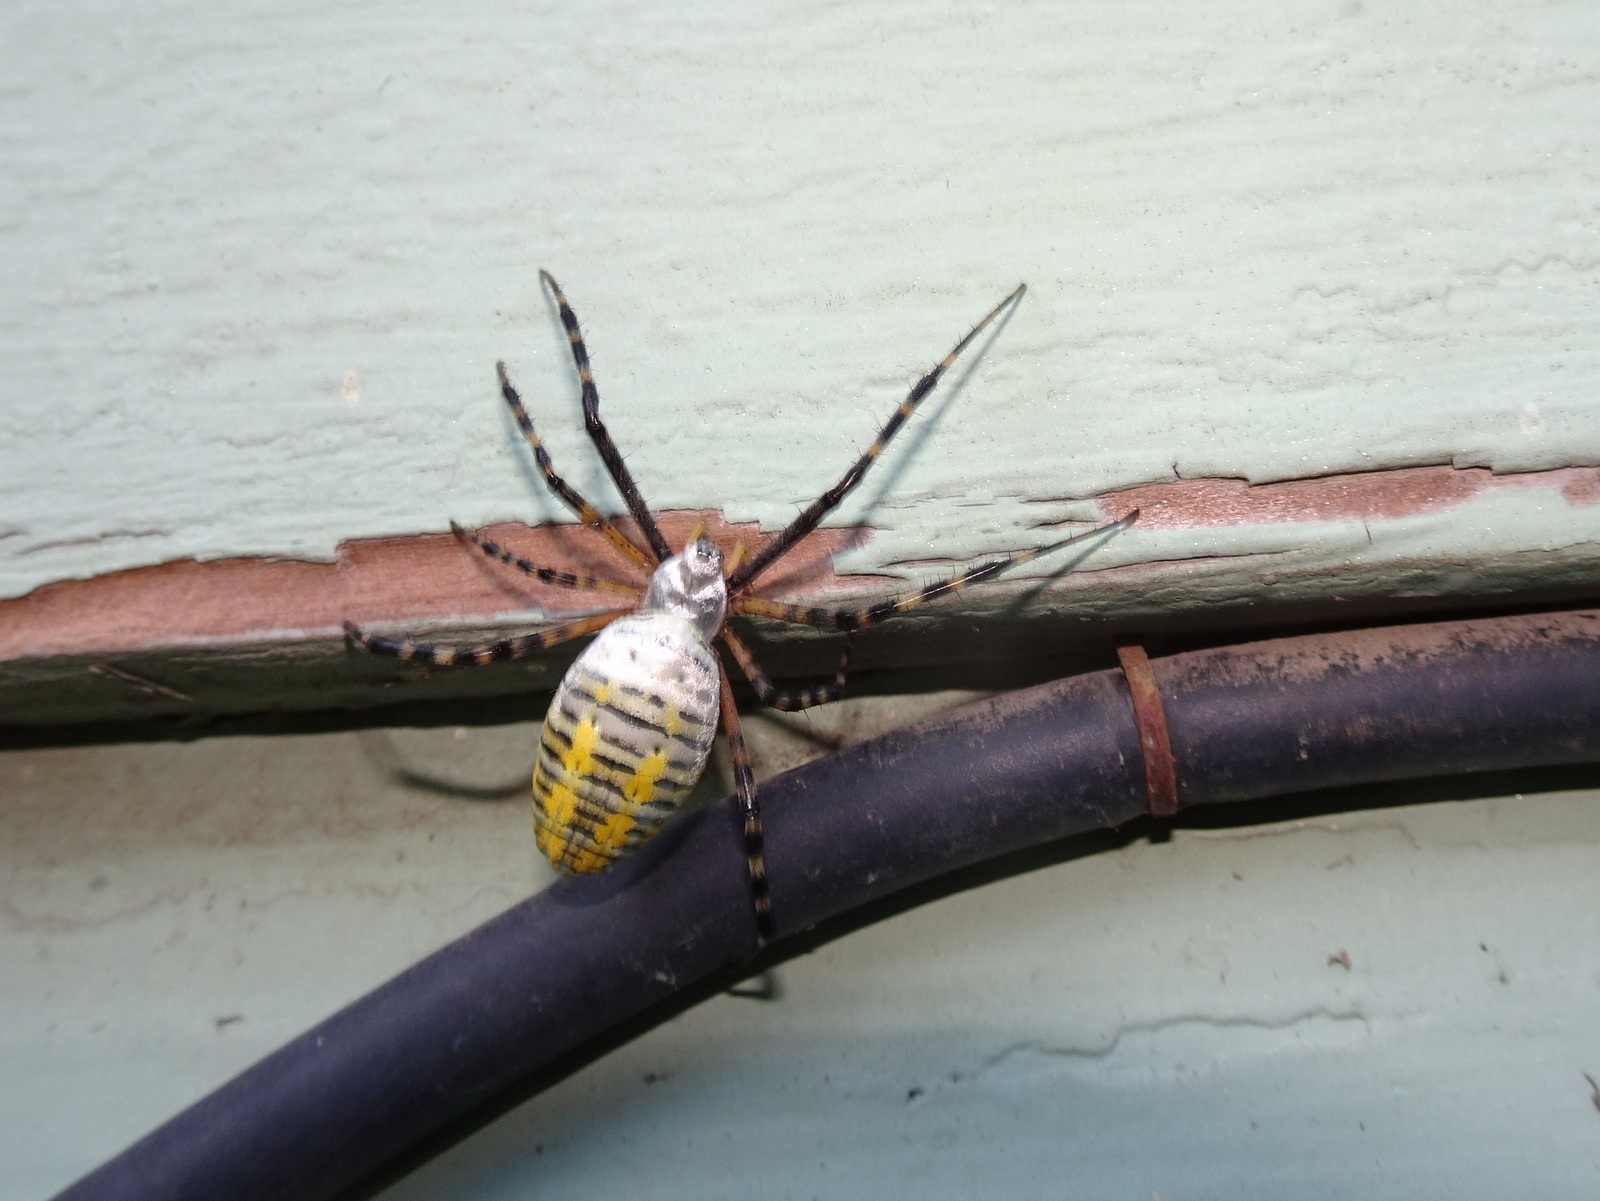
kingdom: Animalia
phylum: Arthropoda
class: Arachnida
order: Araneae
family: Araneidae
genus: Argiope
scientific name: Argiope trifasciata
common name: Banded garden spider
